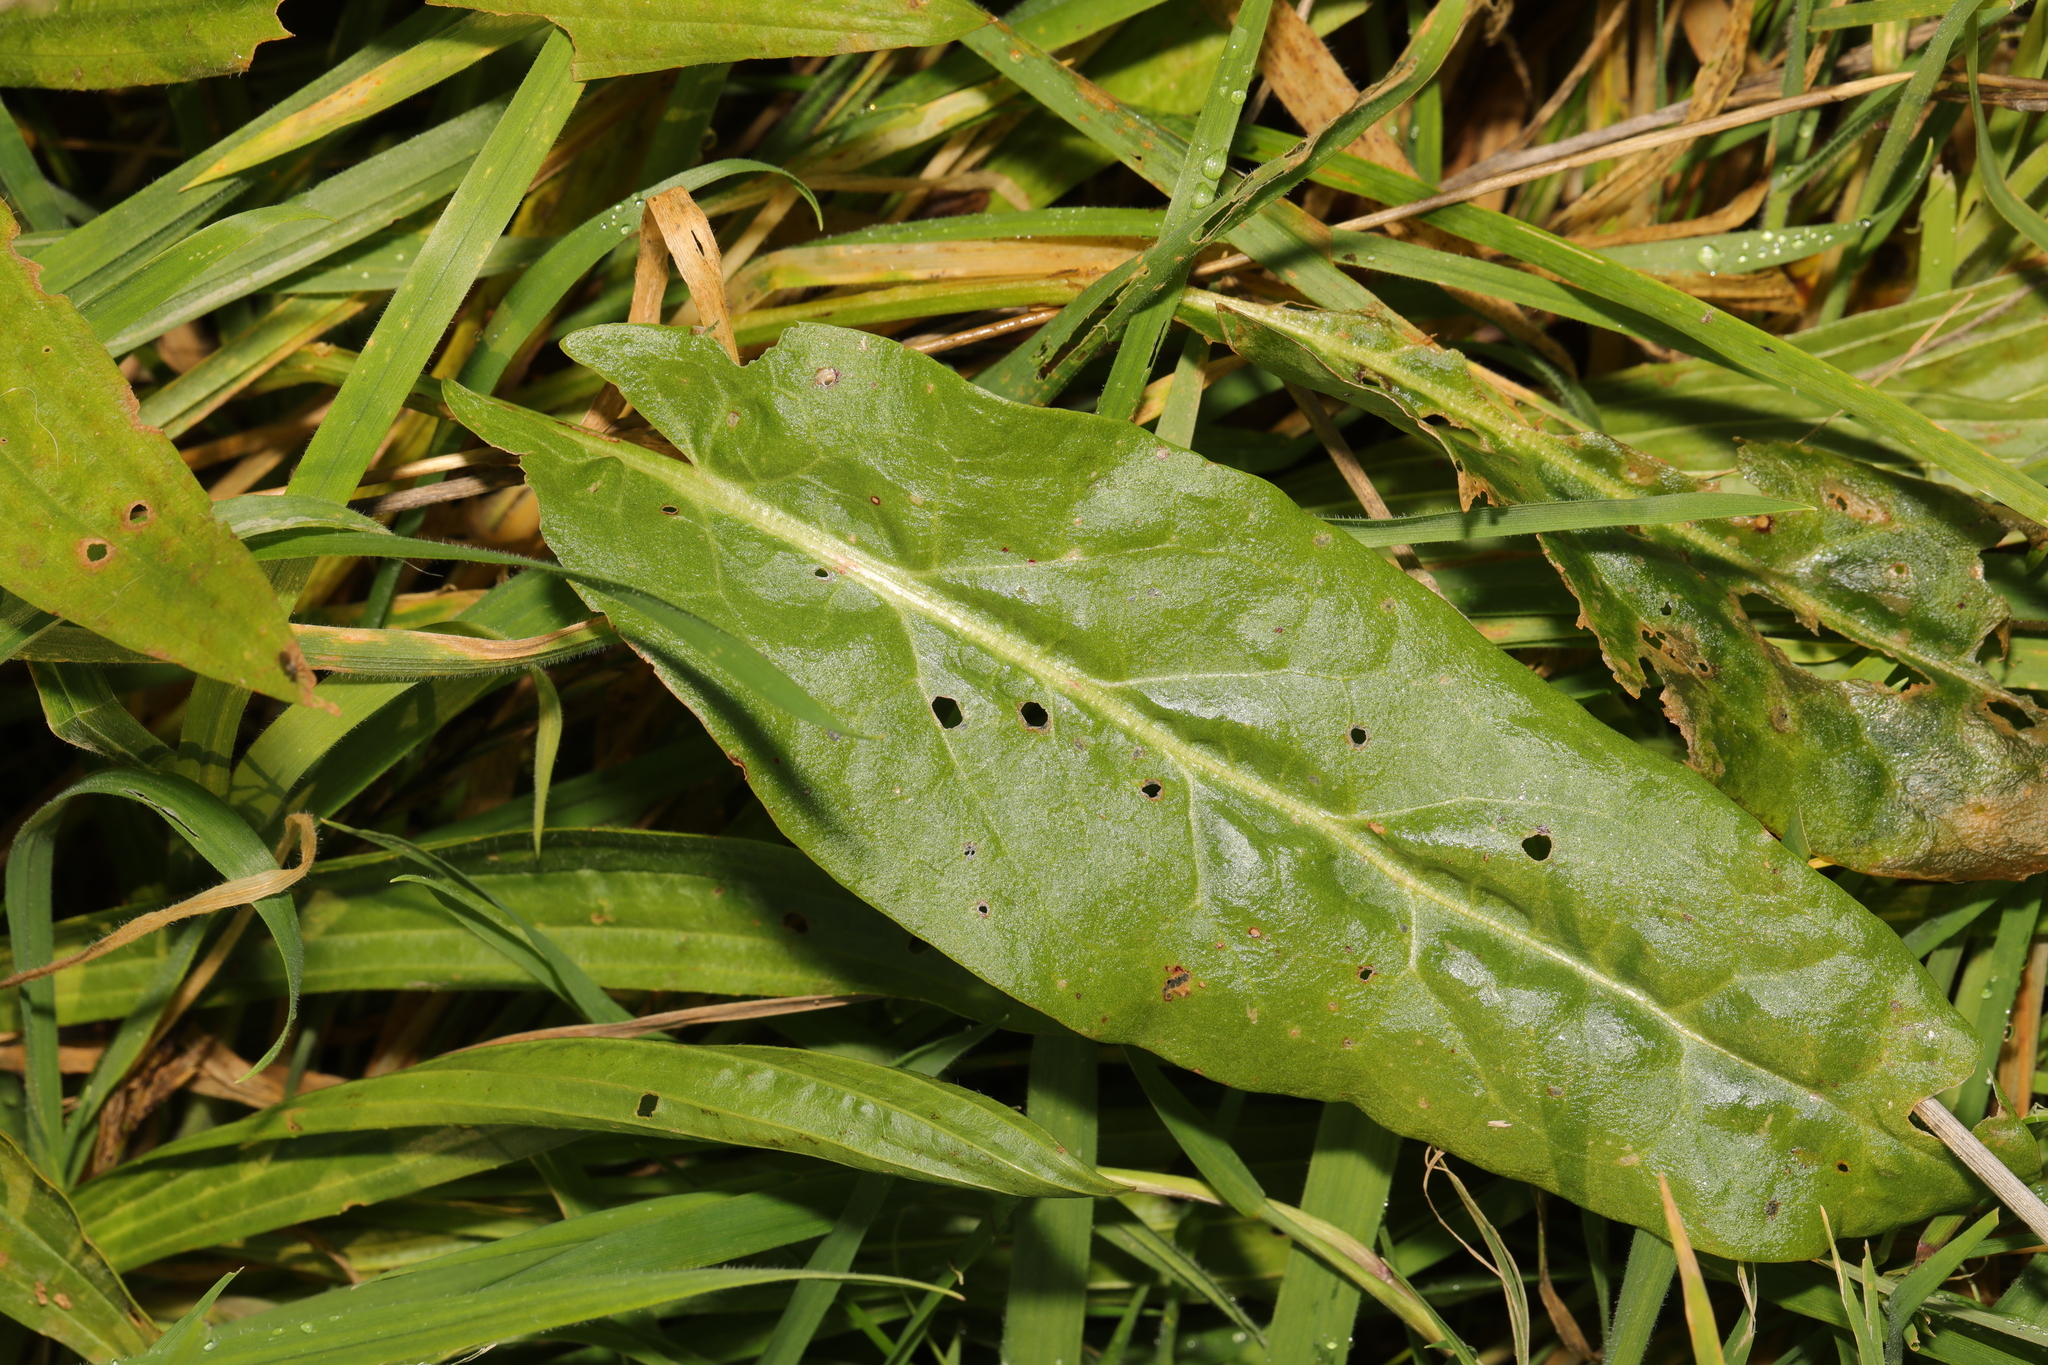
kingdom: Plantae
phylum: Tracheophyta
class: Magnoliopsida
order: Caryophyllales
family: Polygonaceae
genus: Rumex
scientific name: Rumex acetosa
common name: Garden sorrel
